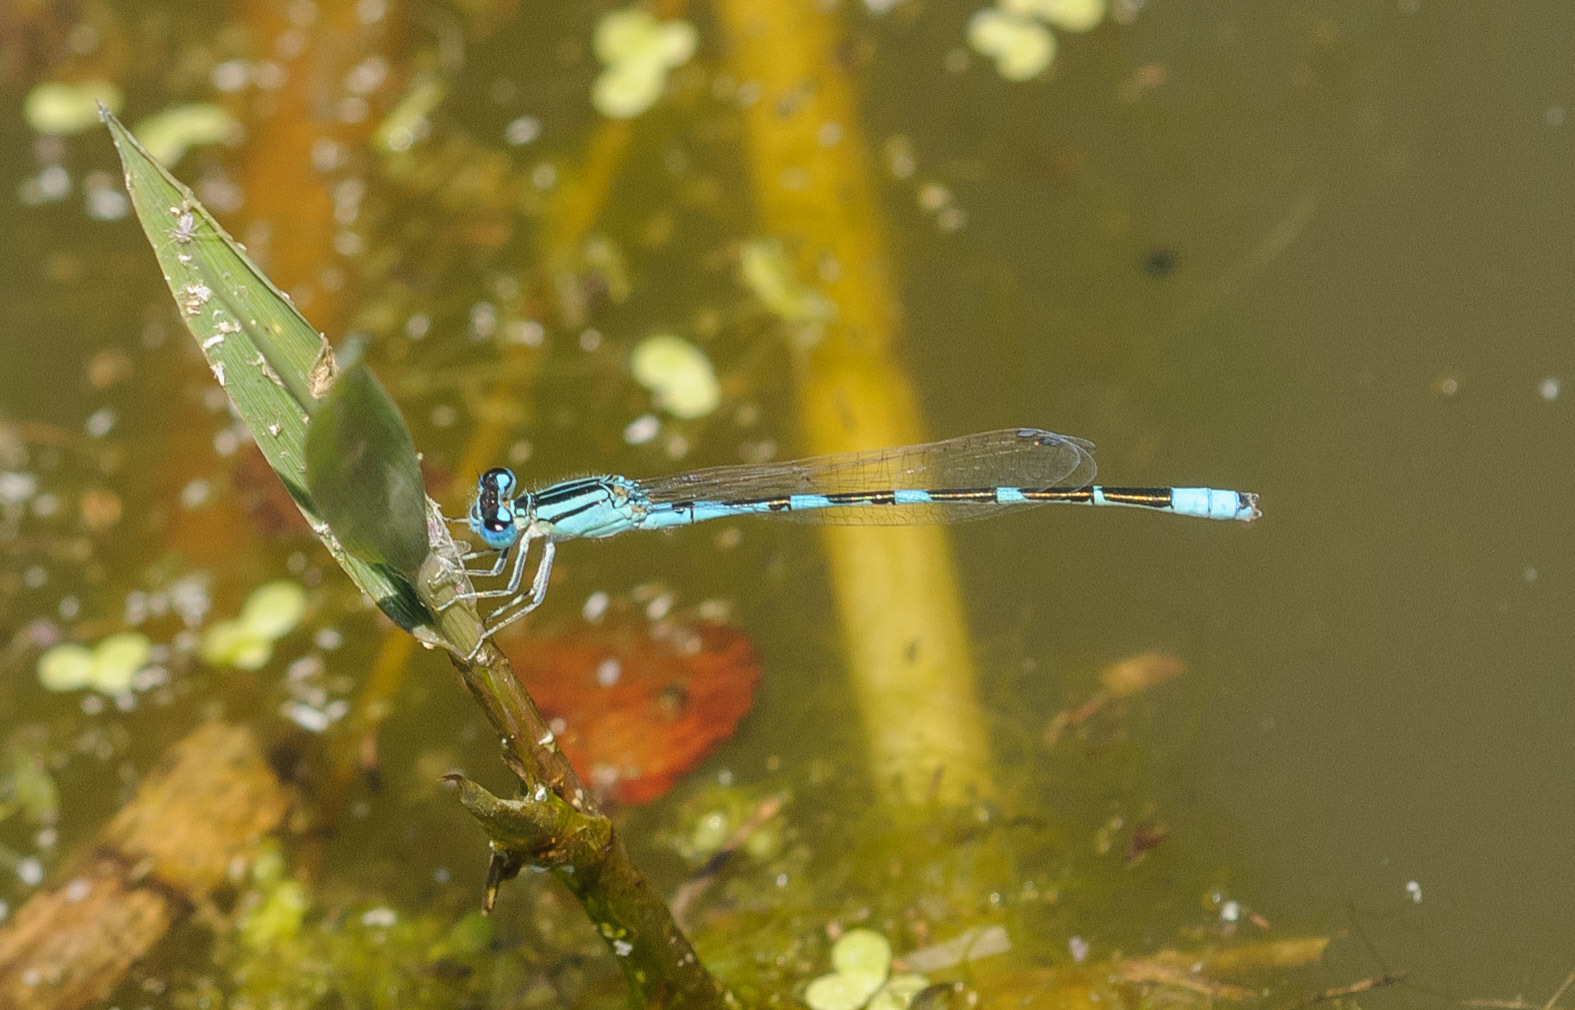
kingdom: Animalia
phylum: Arthropoda
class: Insecta
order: Odonata
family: Coenagrionidae
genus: Enallagma
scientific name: Enallagma carunculatum
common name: Tule bluet
